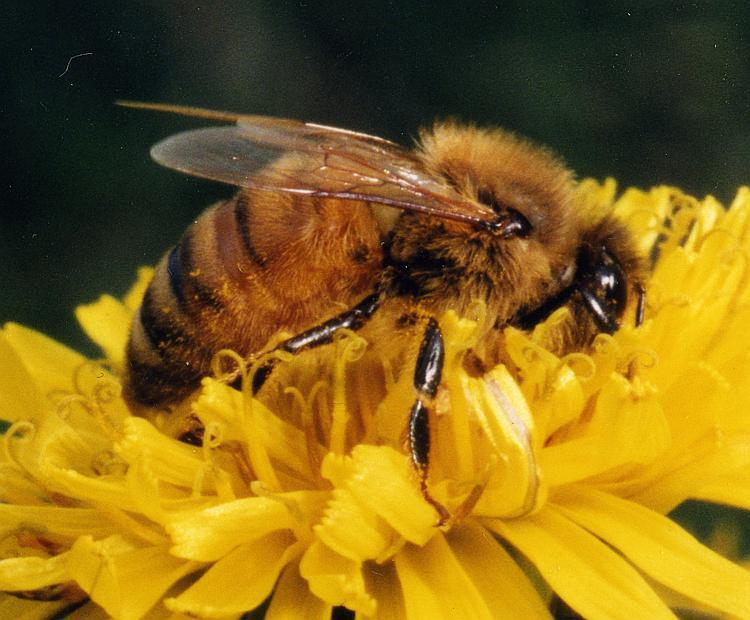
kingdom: Animalia
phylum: Arthropoda
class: Insecta
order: Hymenoptera
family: Apidae
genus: Apis
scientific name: Apis mellifera
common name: Honey bee
